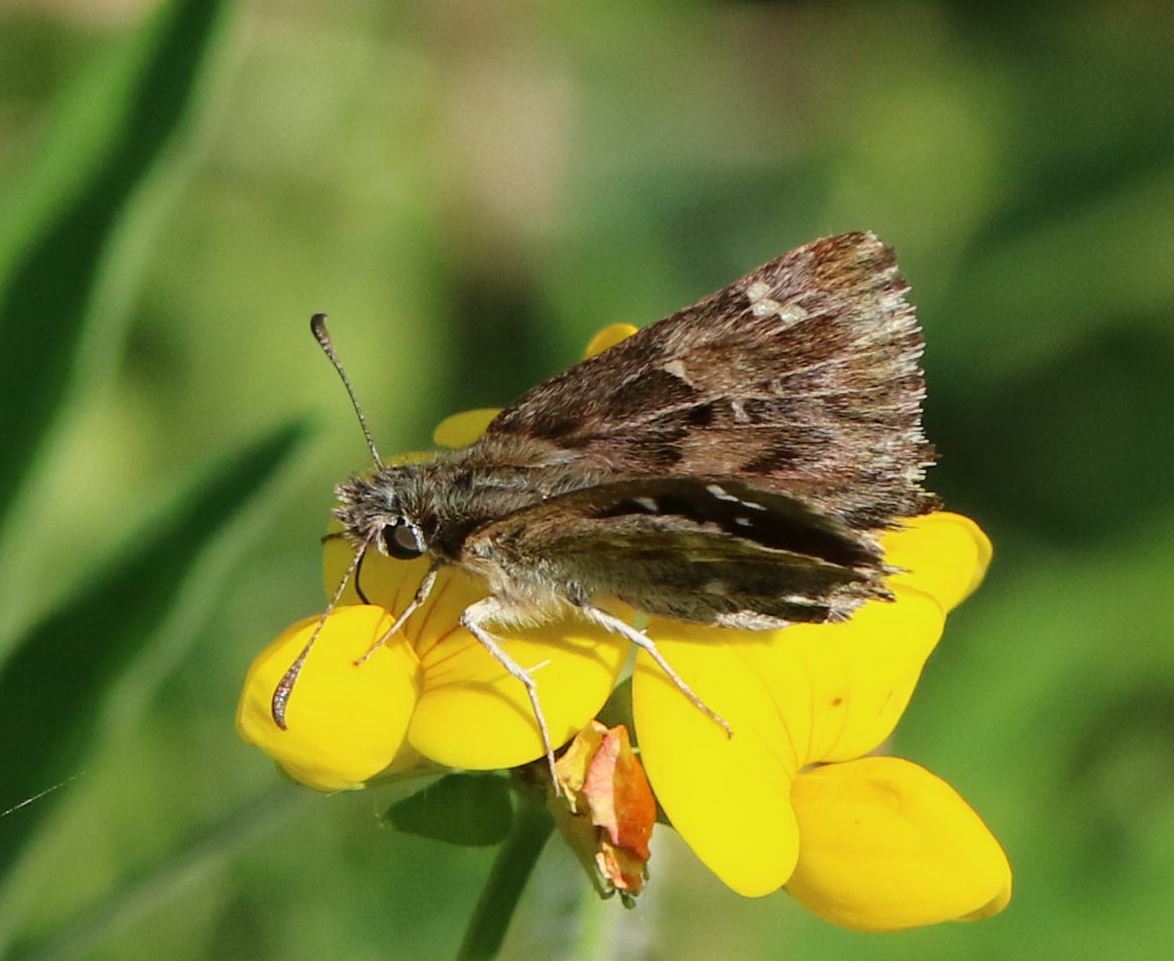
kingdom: Animalia
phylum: Arthropoda
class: Insecta
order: Lepidoptera
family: Hesperiidae
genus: Carcharodus
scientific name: Carcharodus alceae
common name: Mallow skipper
